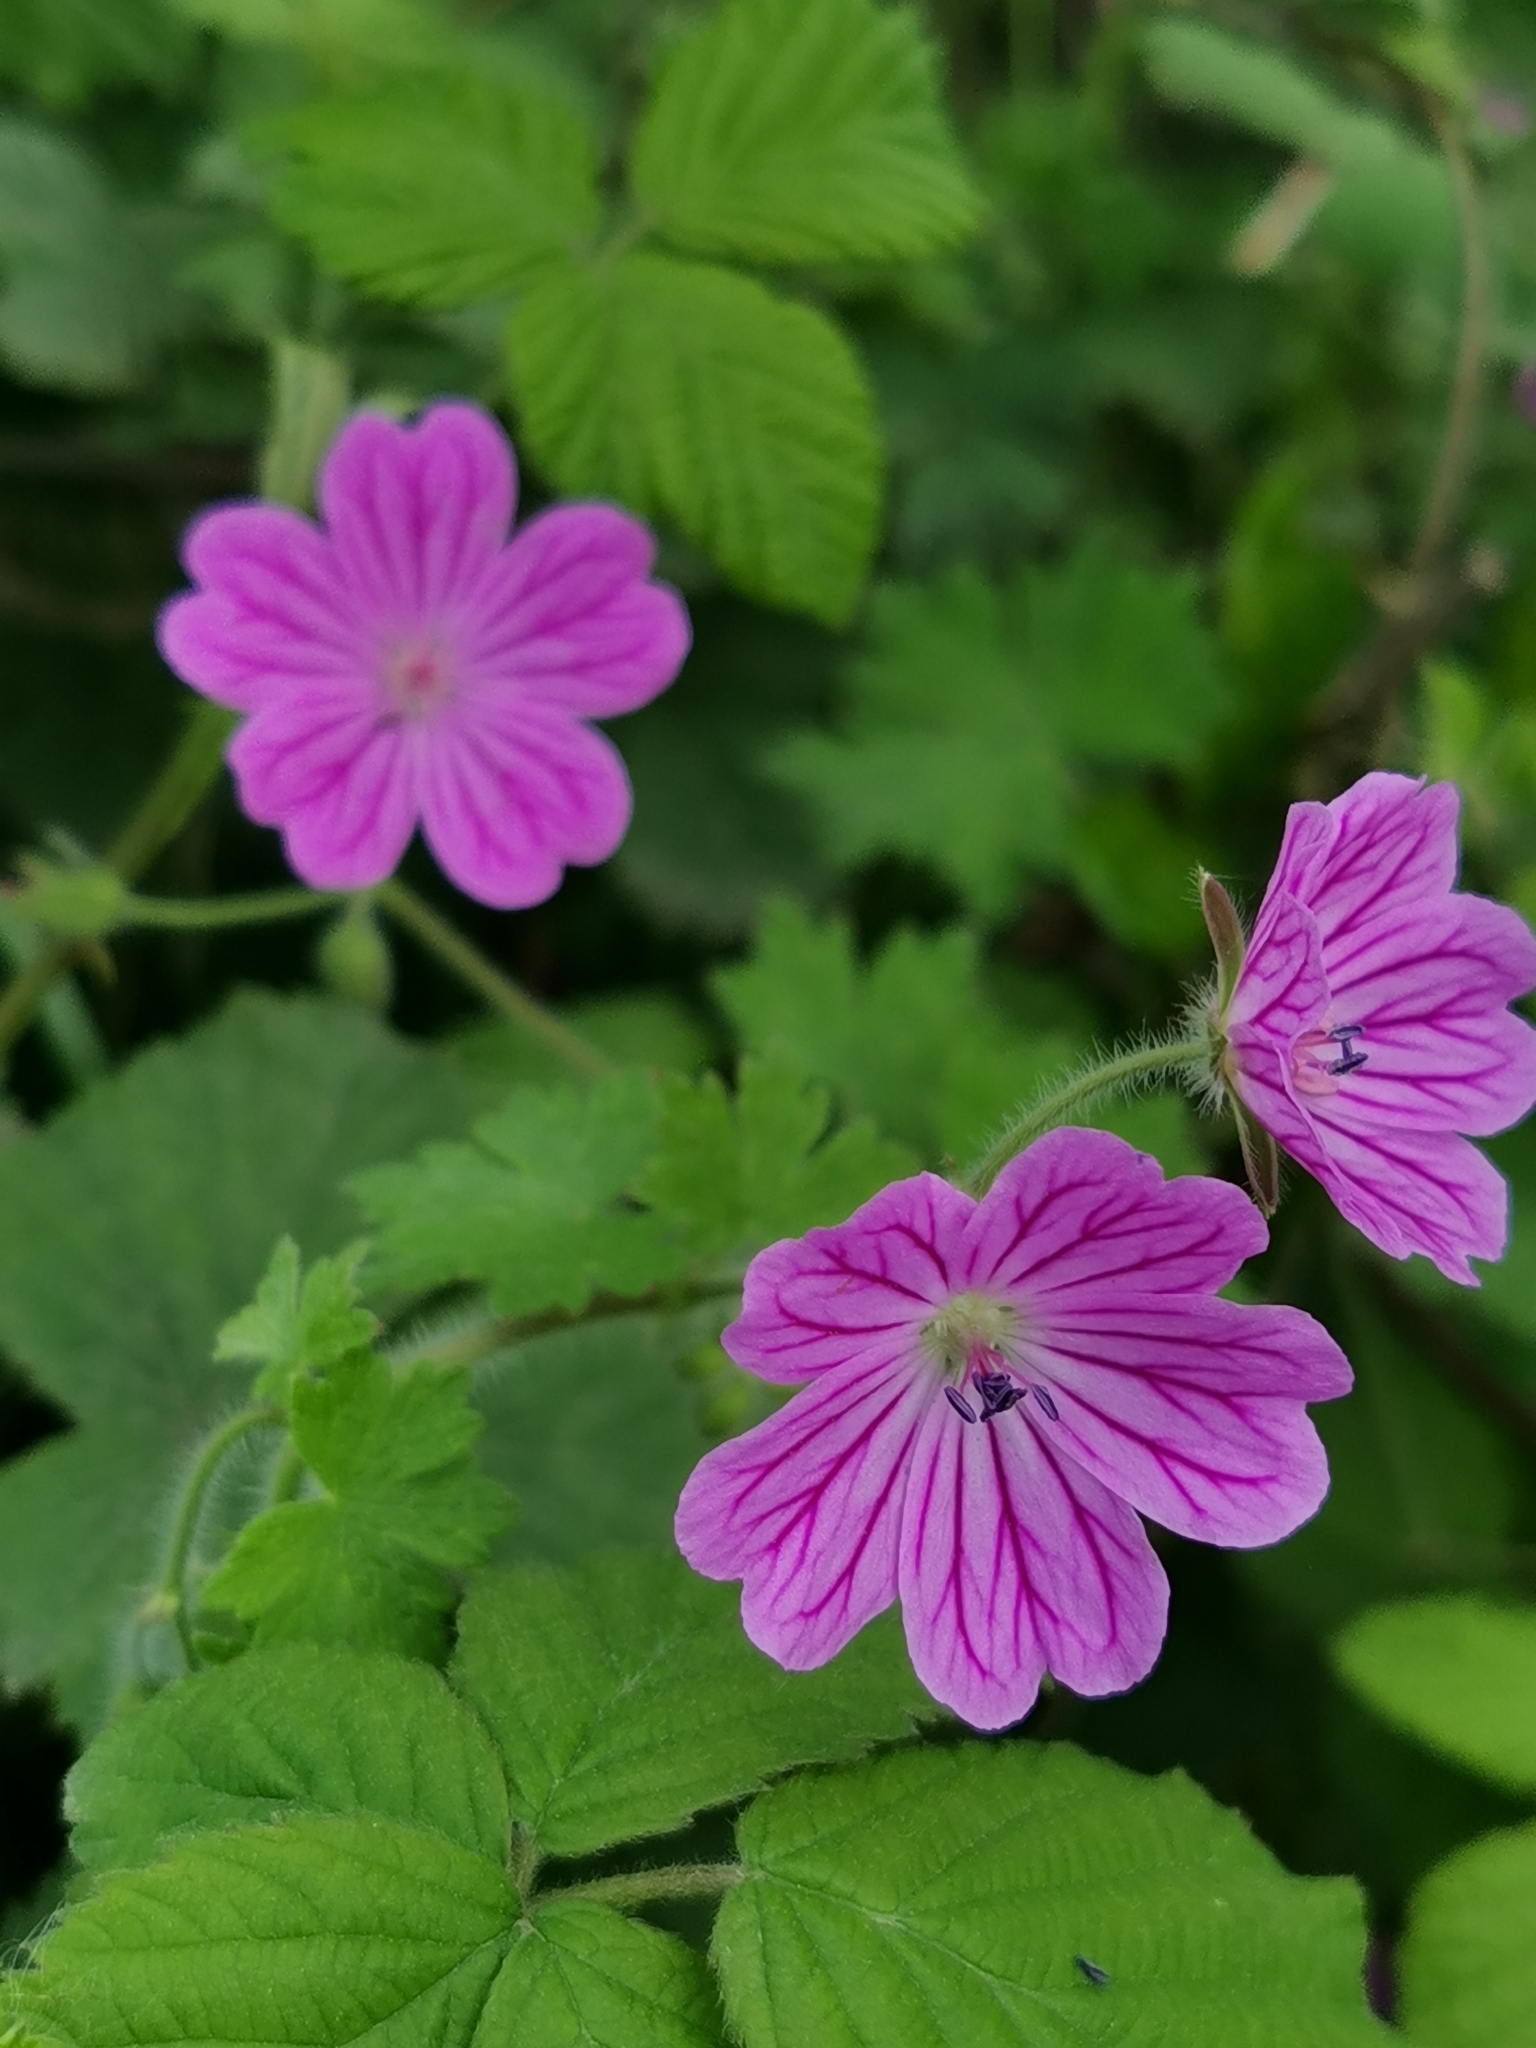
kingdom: Plantae
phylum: Tracheophyta
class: Magnoliopsida
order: Geraniales
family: Geraniaceae
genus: Geranium
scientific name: Geranium albanum
